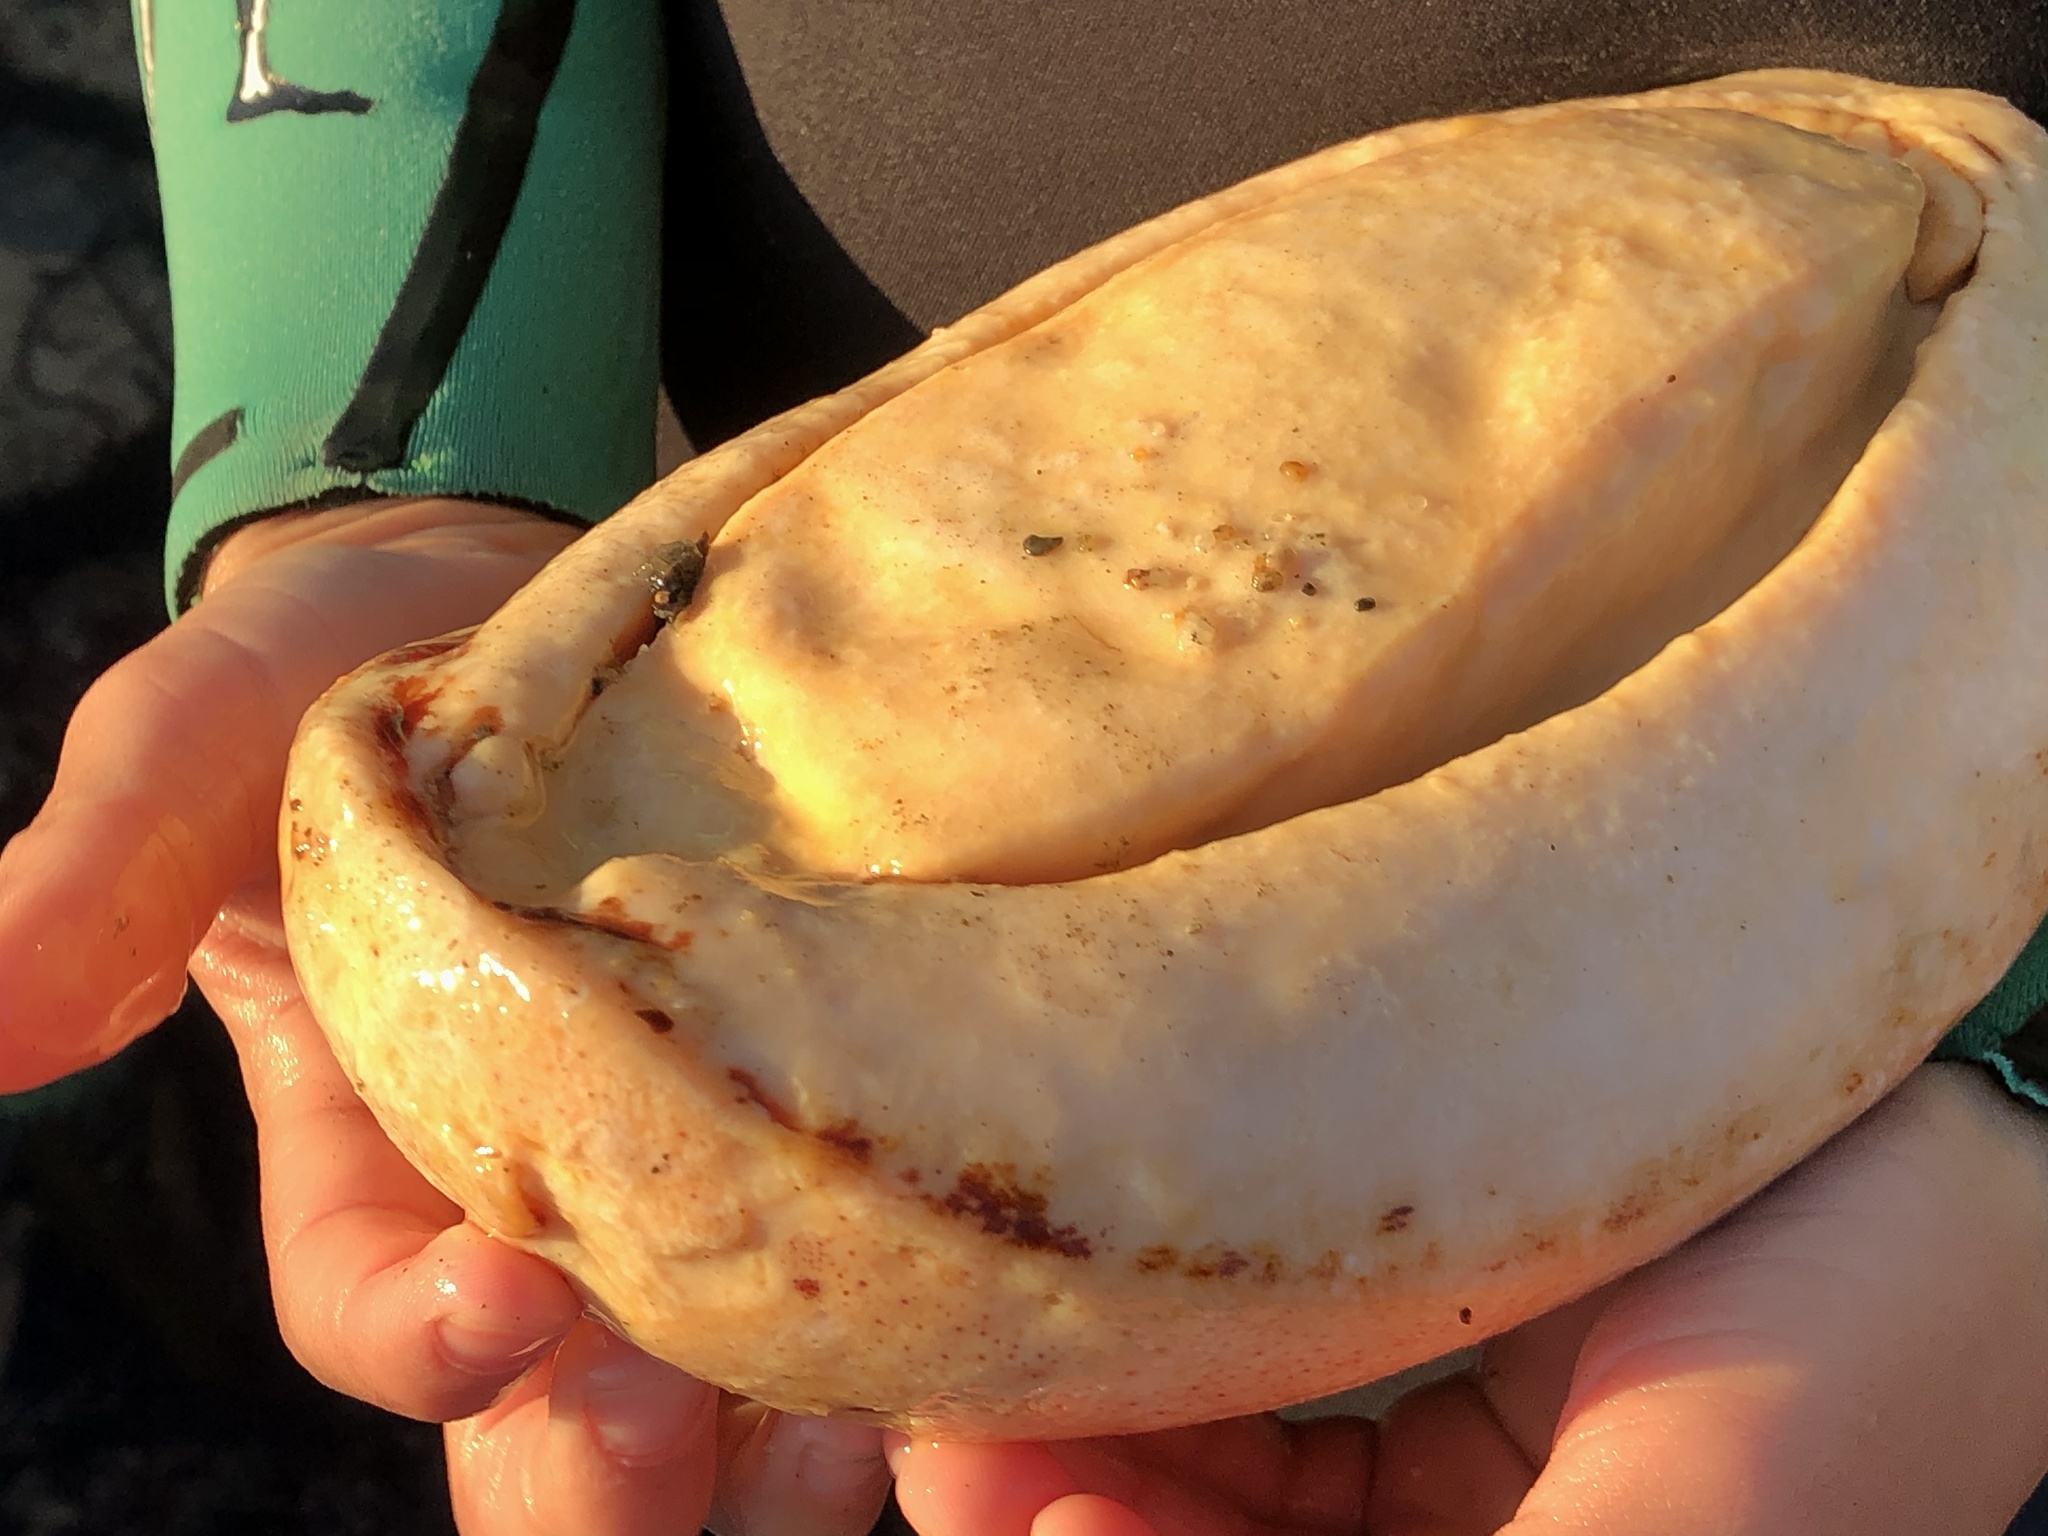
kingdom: Animalia
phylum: Mollusca
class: Polyplacophora
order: Chitonida
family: Acanthochitonidae
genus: Cryptochiton
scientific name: Cryptochiton stelleri
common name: Giant pacific chiton
